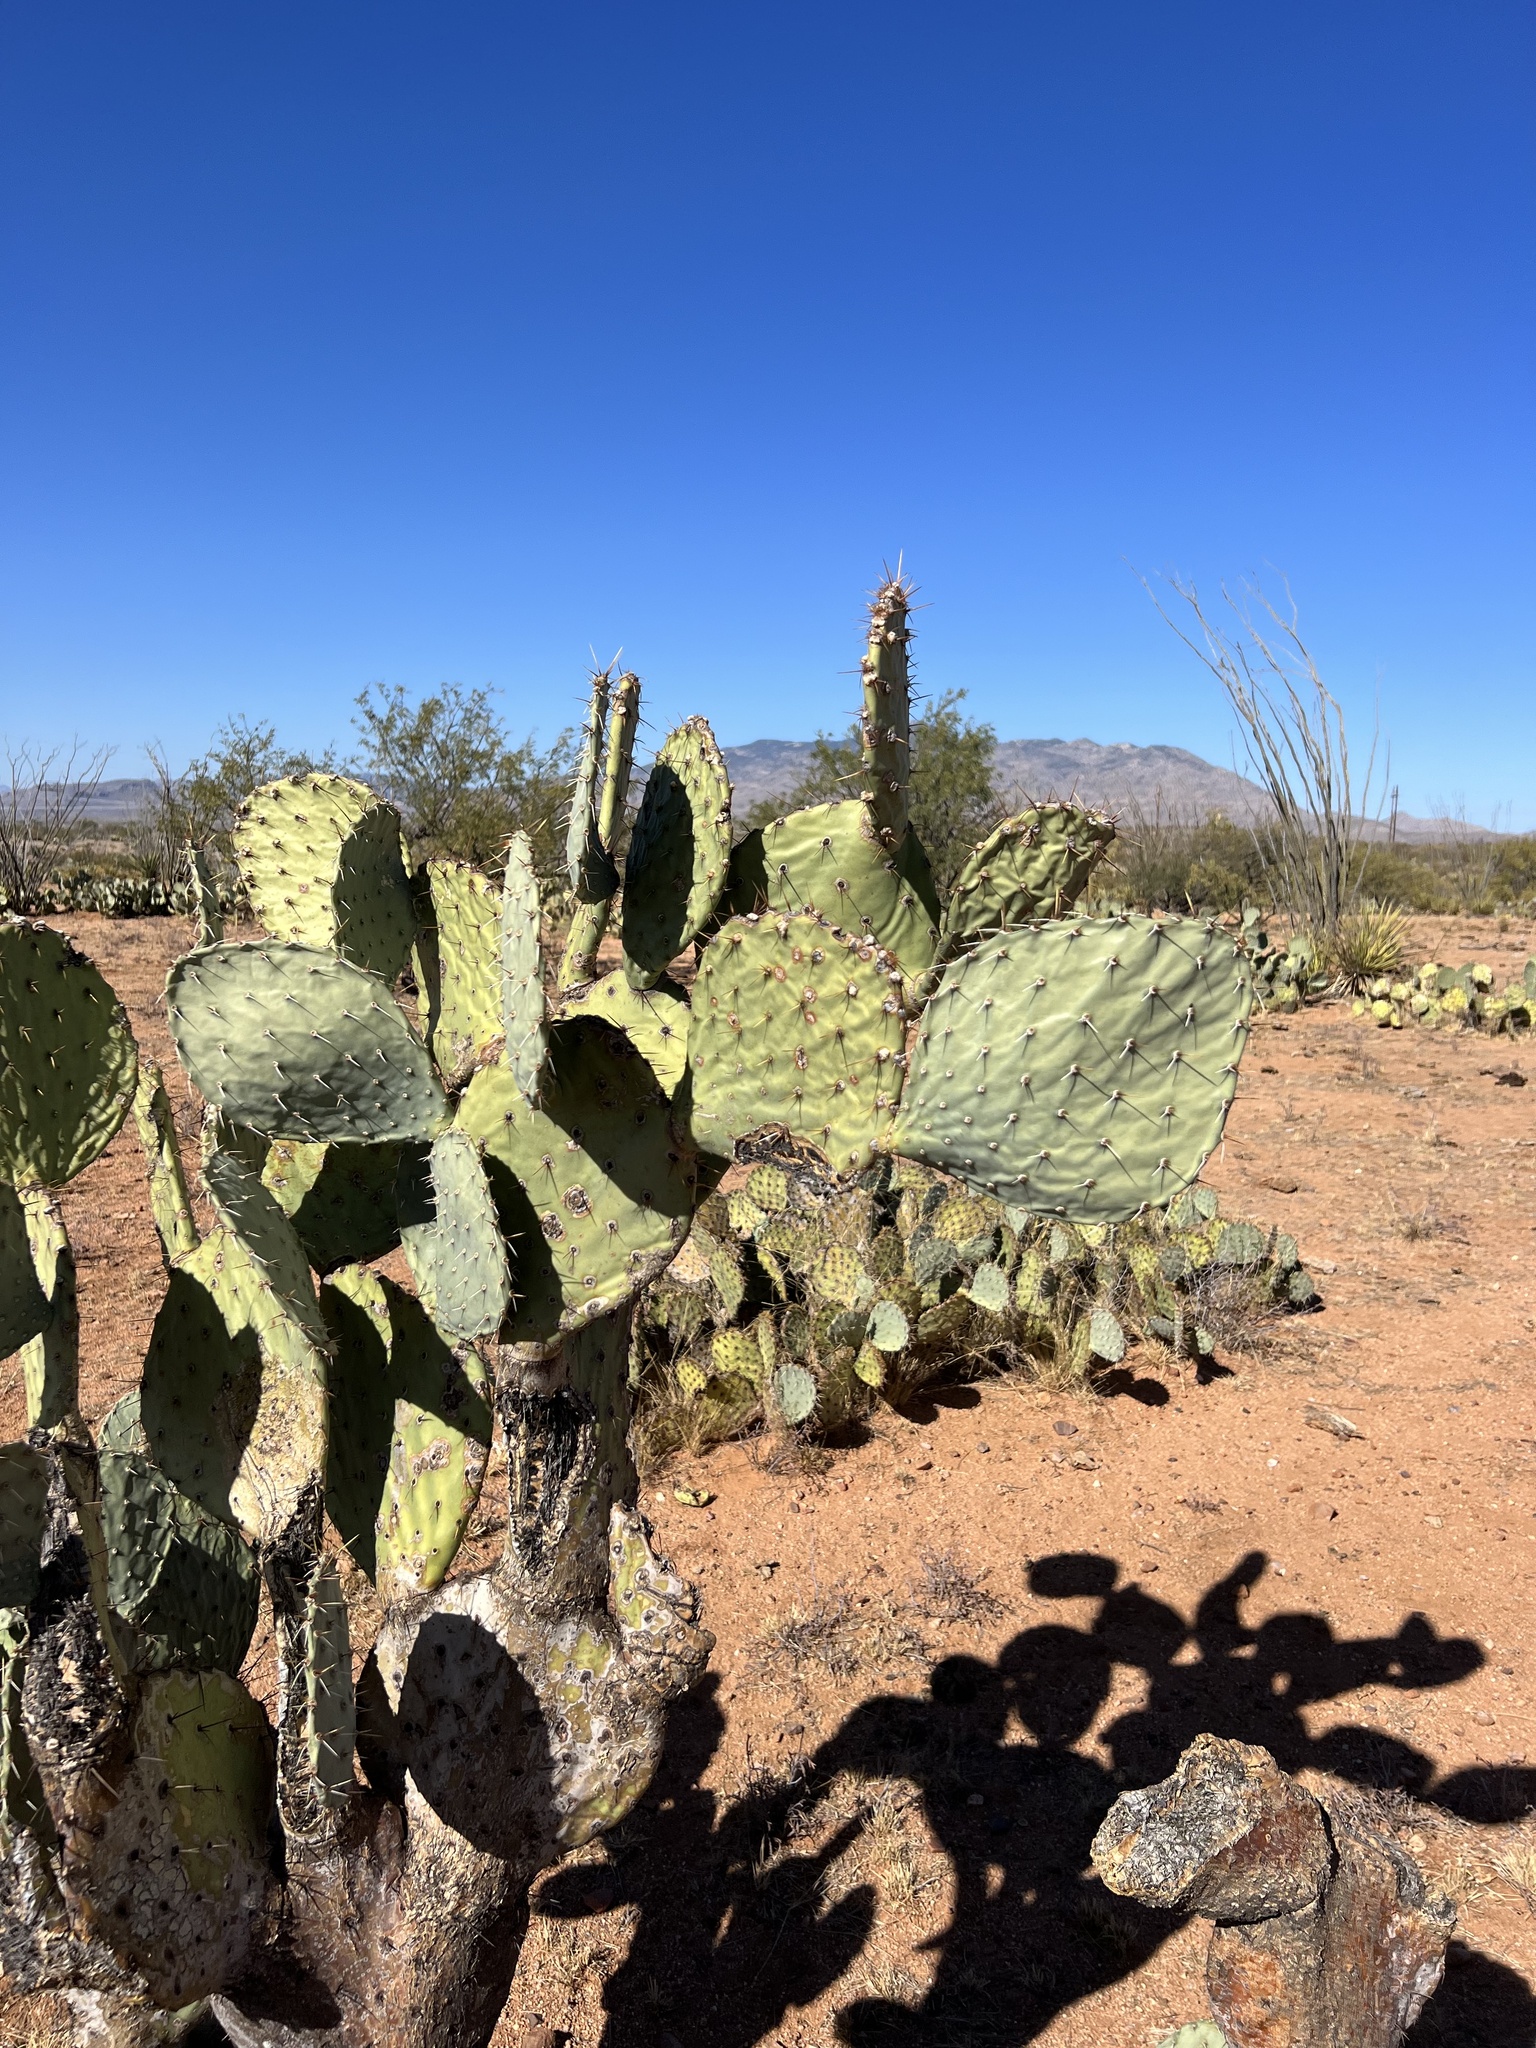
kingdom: Plantae
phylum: Tracheophyta
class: Magnoliopsida
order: Caryophyllales
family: Cactaceae
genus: Opuntia
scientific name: Opuntia engelmannii
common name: Cactus-apple
